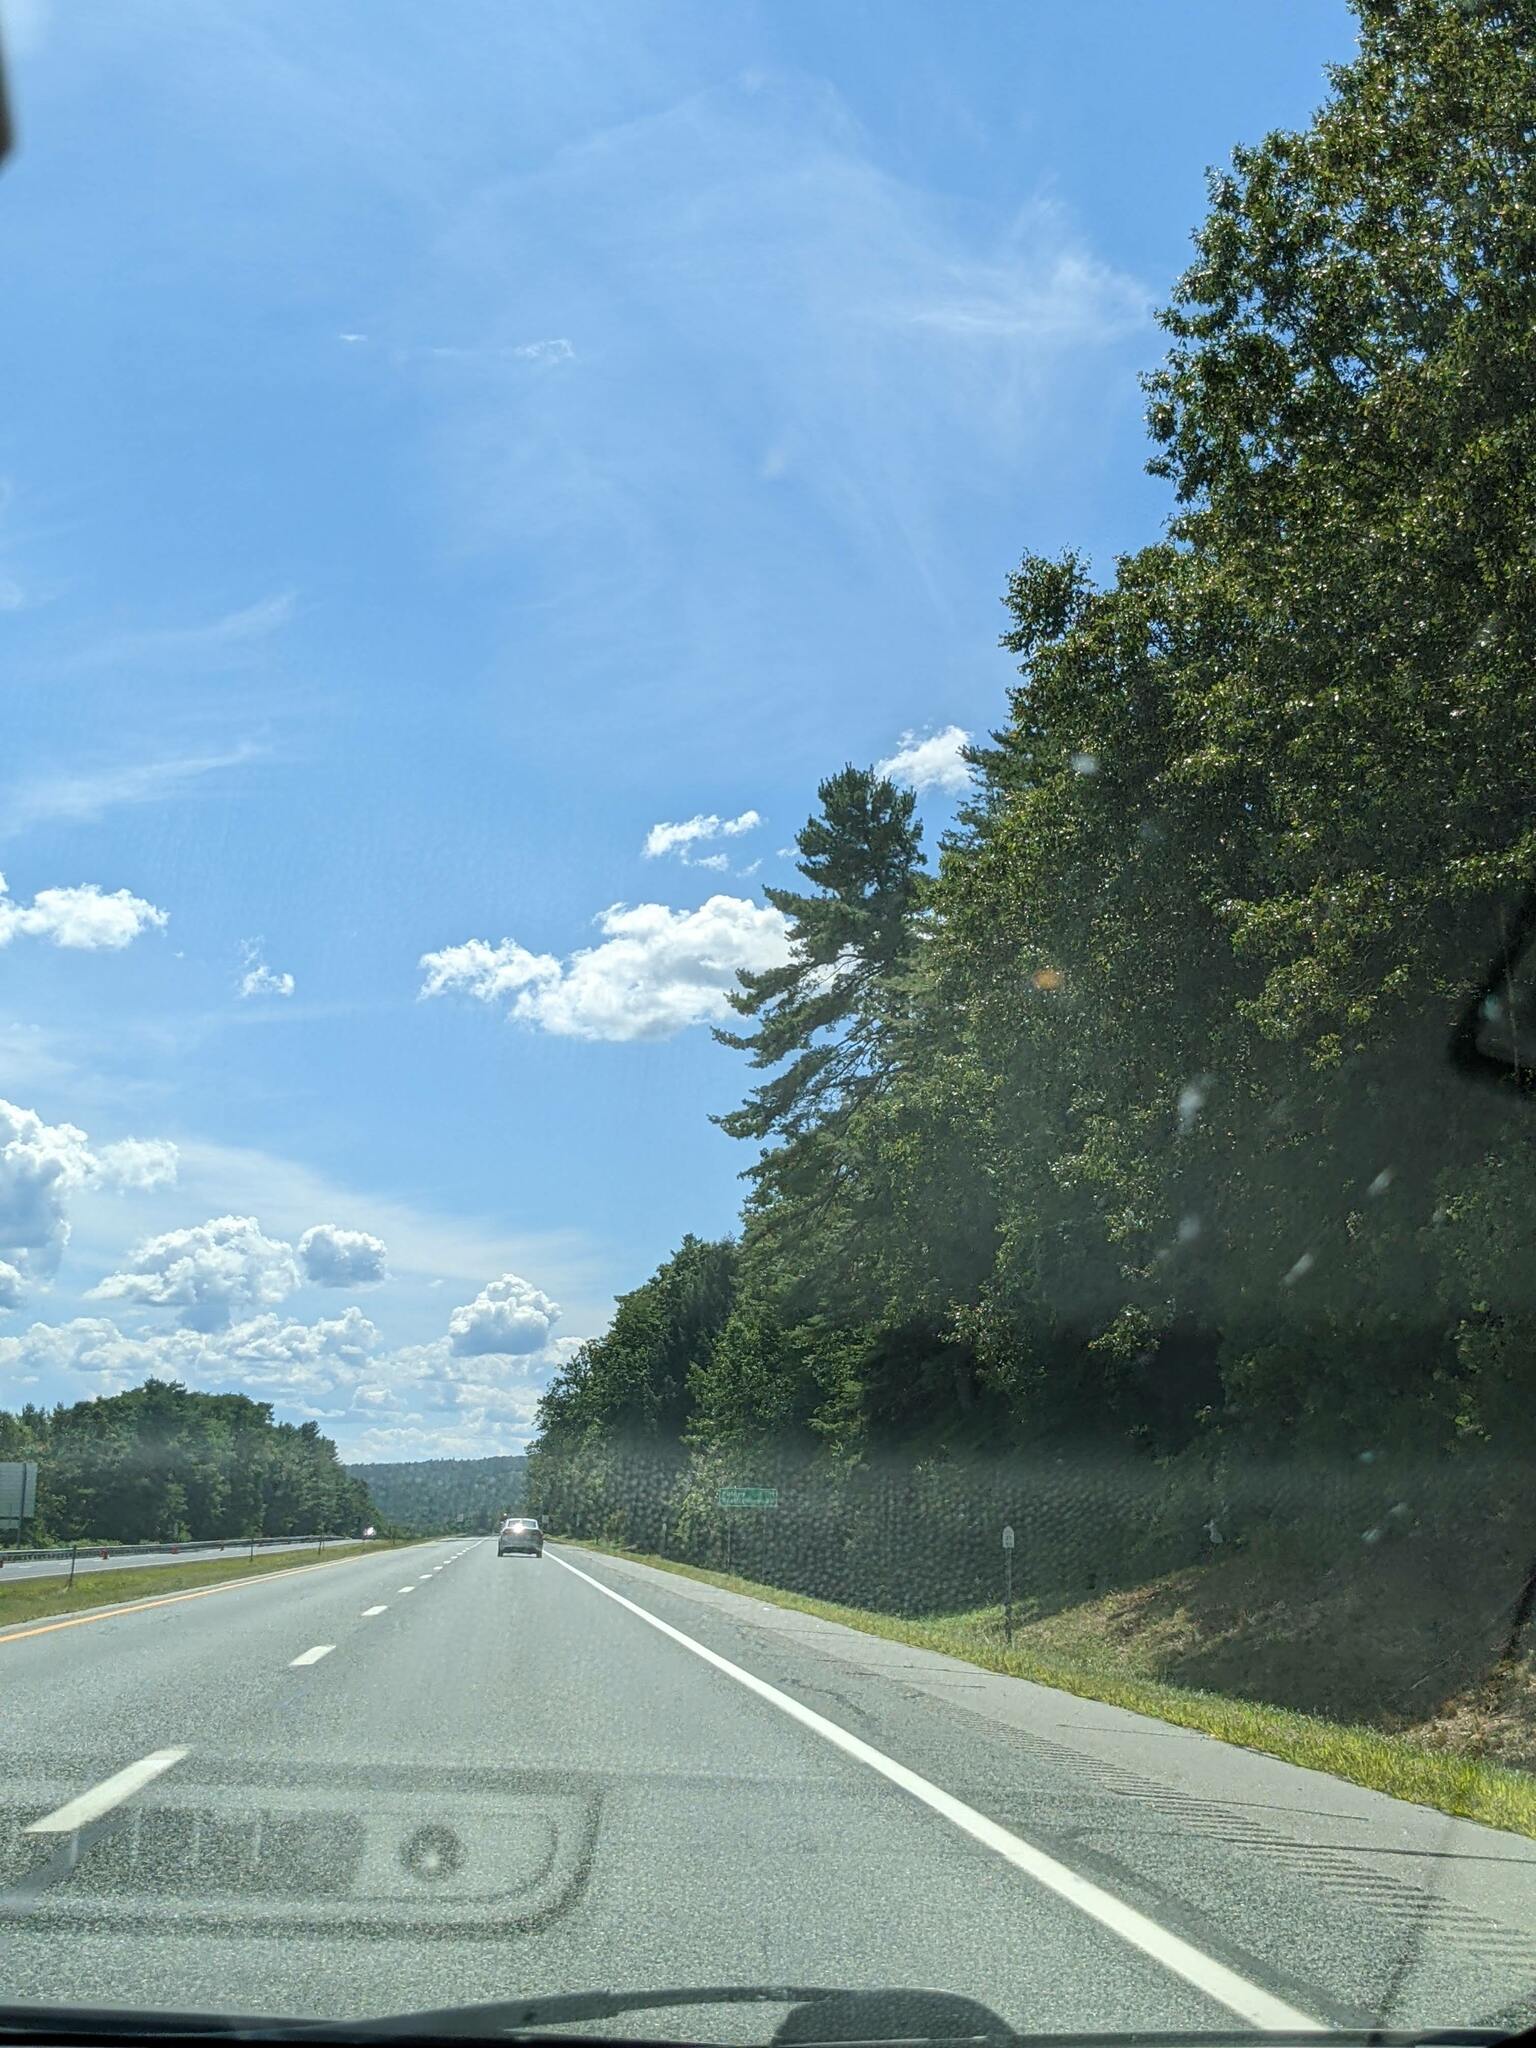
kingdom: Plantae
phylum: Tracheophyta
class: Pinopsida
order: Pinales
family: Pinaceae
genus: Pinus
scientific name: Pinus strobus
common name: Weymouth pine
